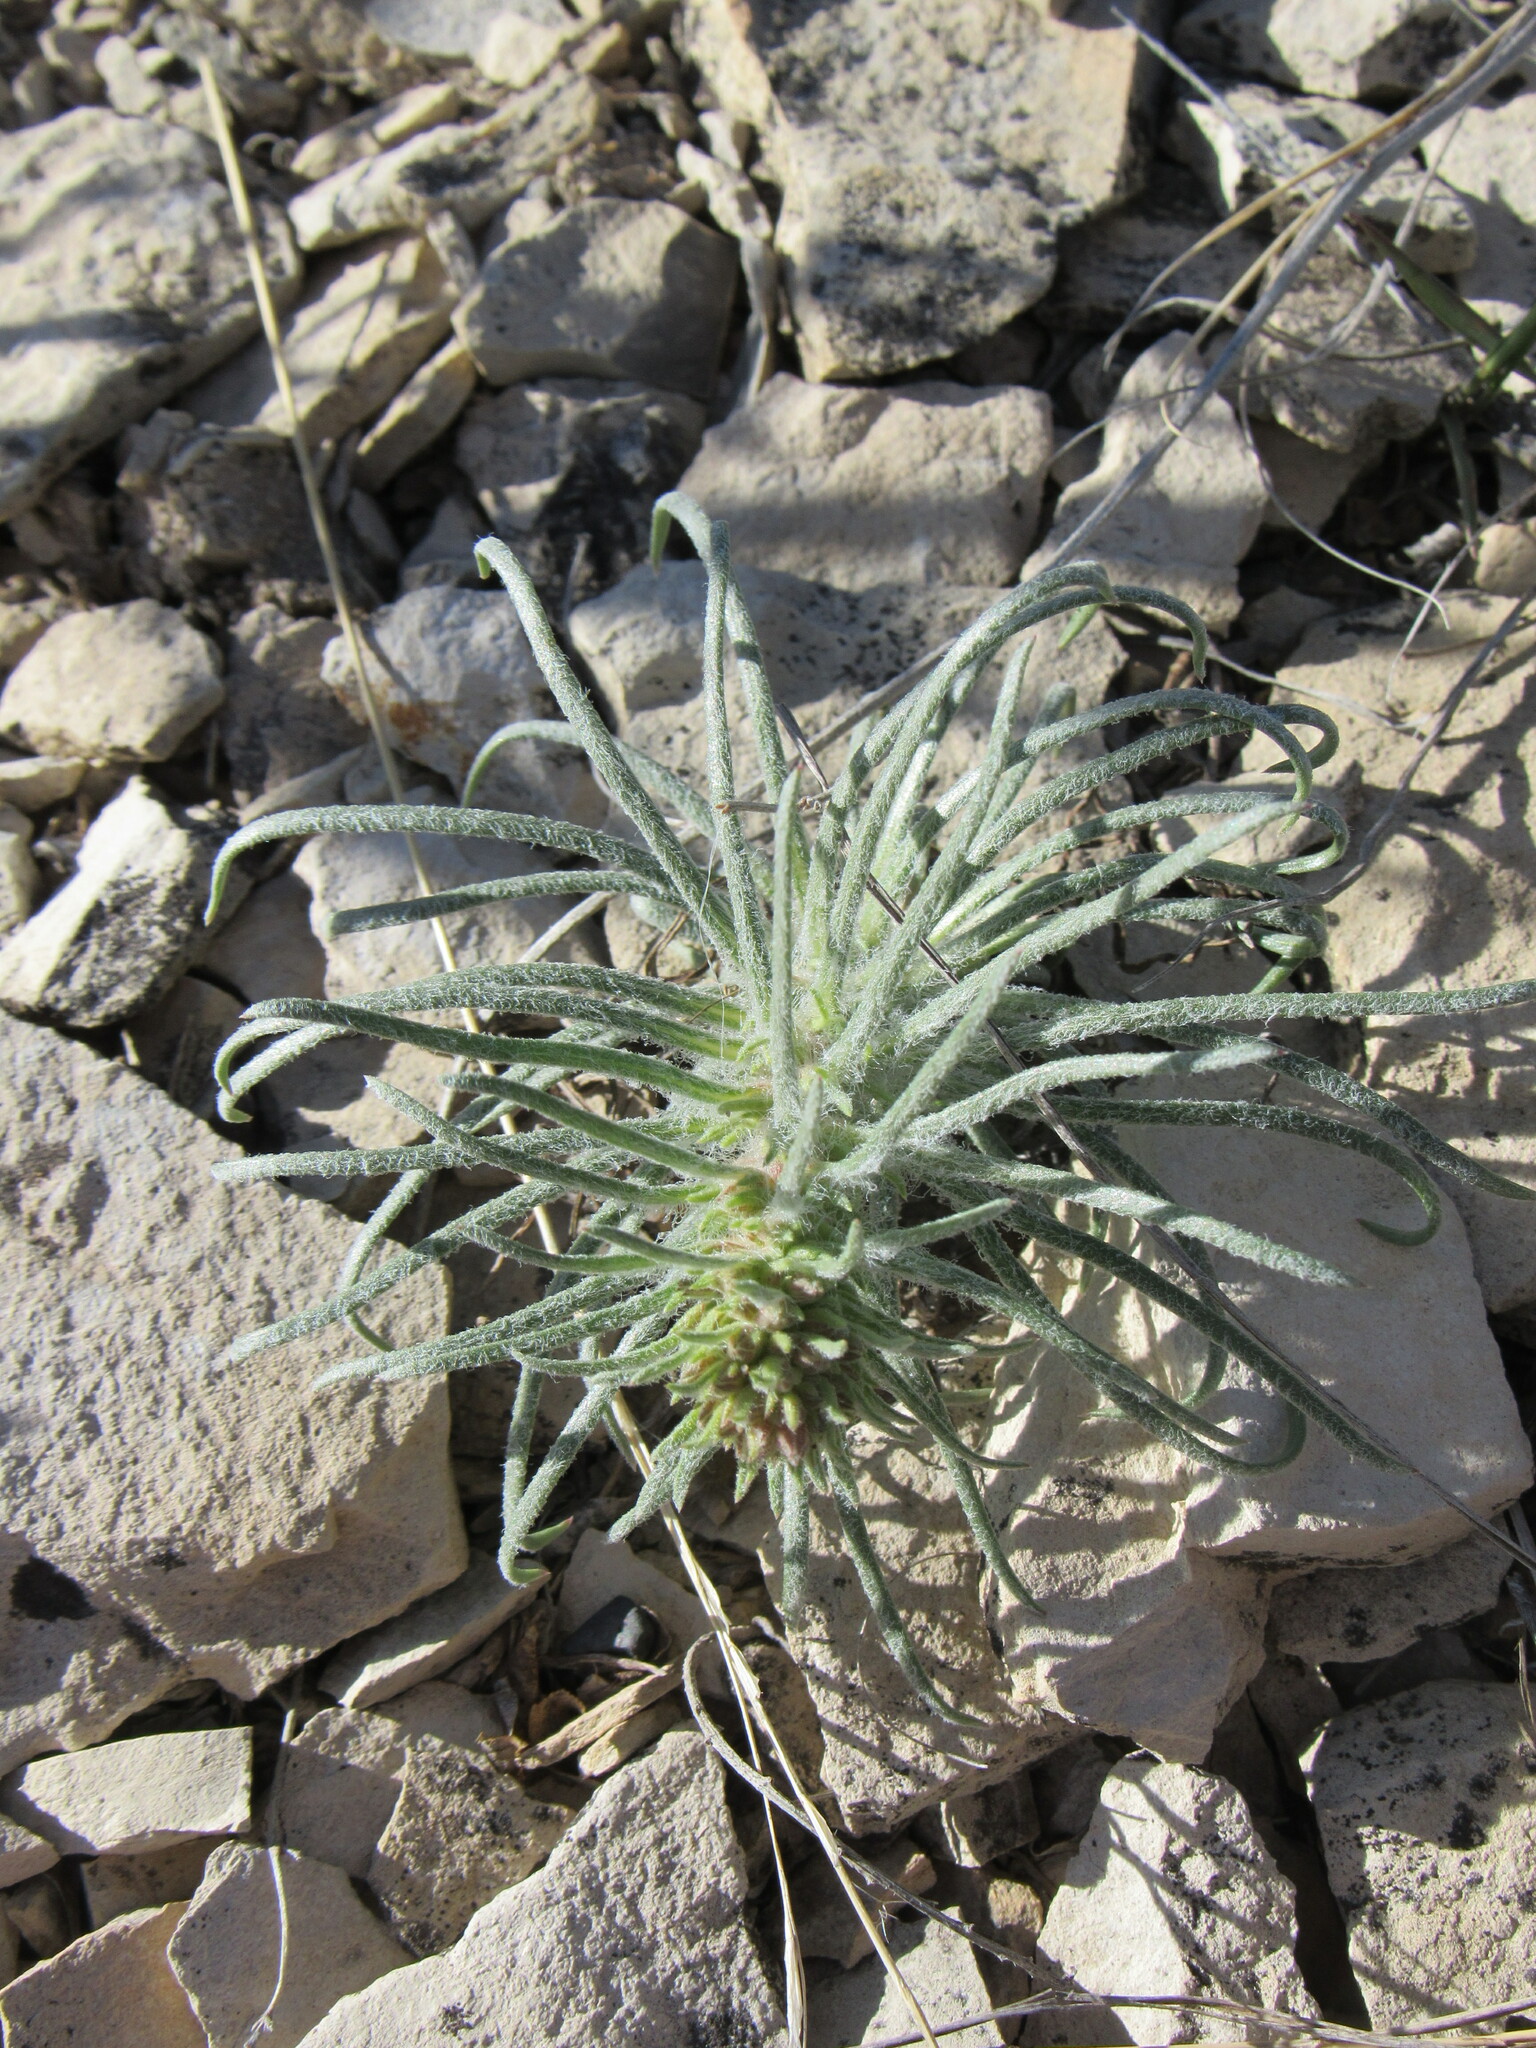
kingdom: Plantae
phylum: Tracheophyta
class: Magnoliopsida
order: Ericales
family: Polemoniaceae
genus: Ipomopsis
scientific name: Ipomopsis spicata
